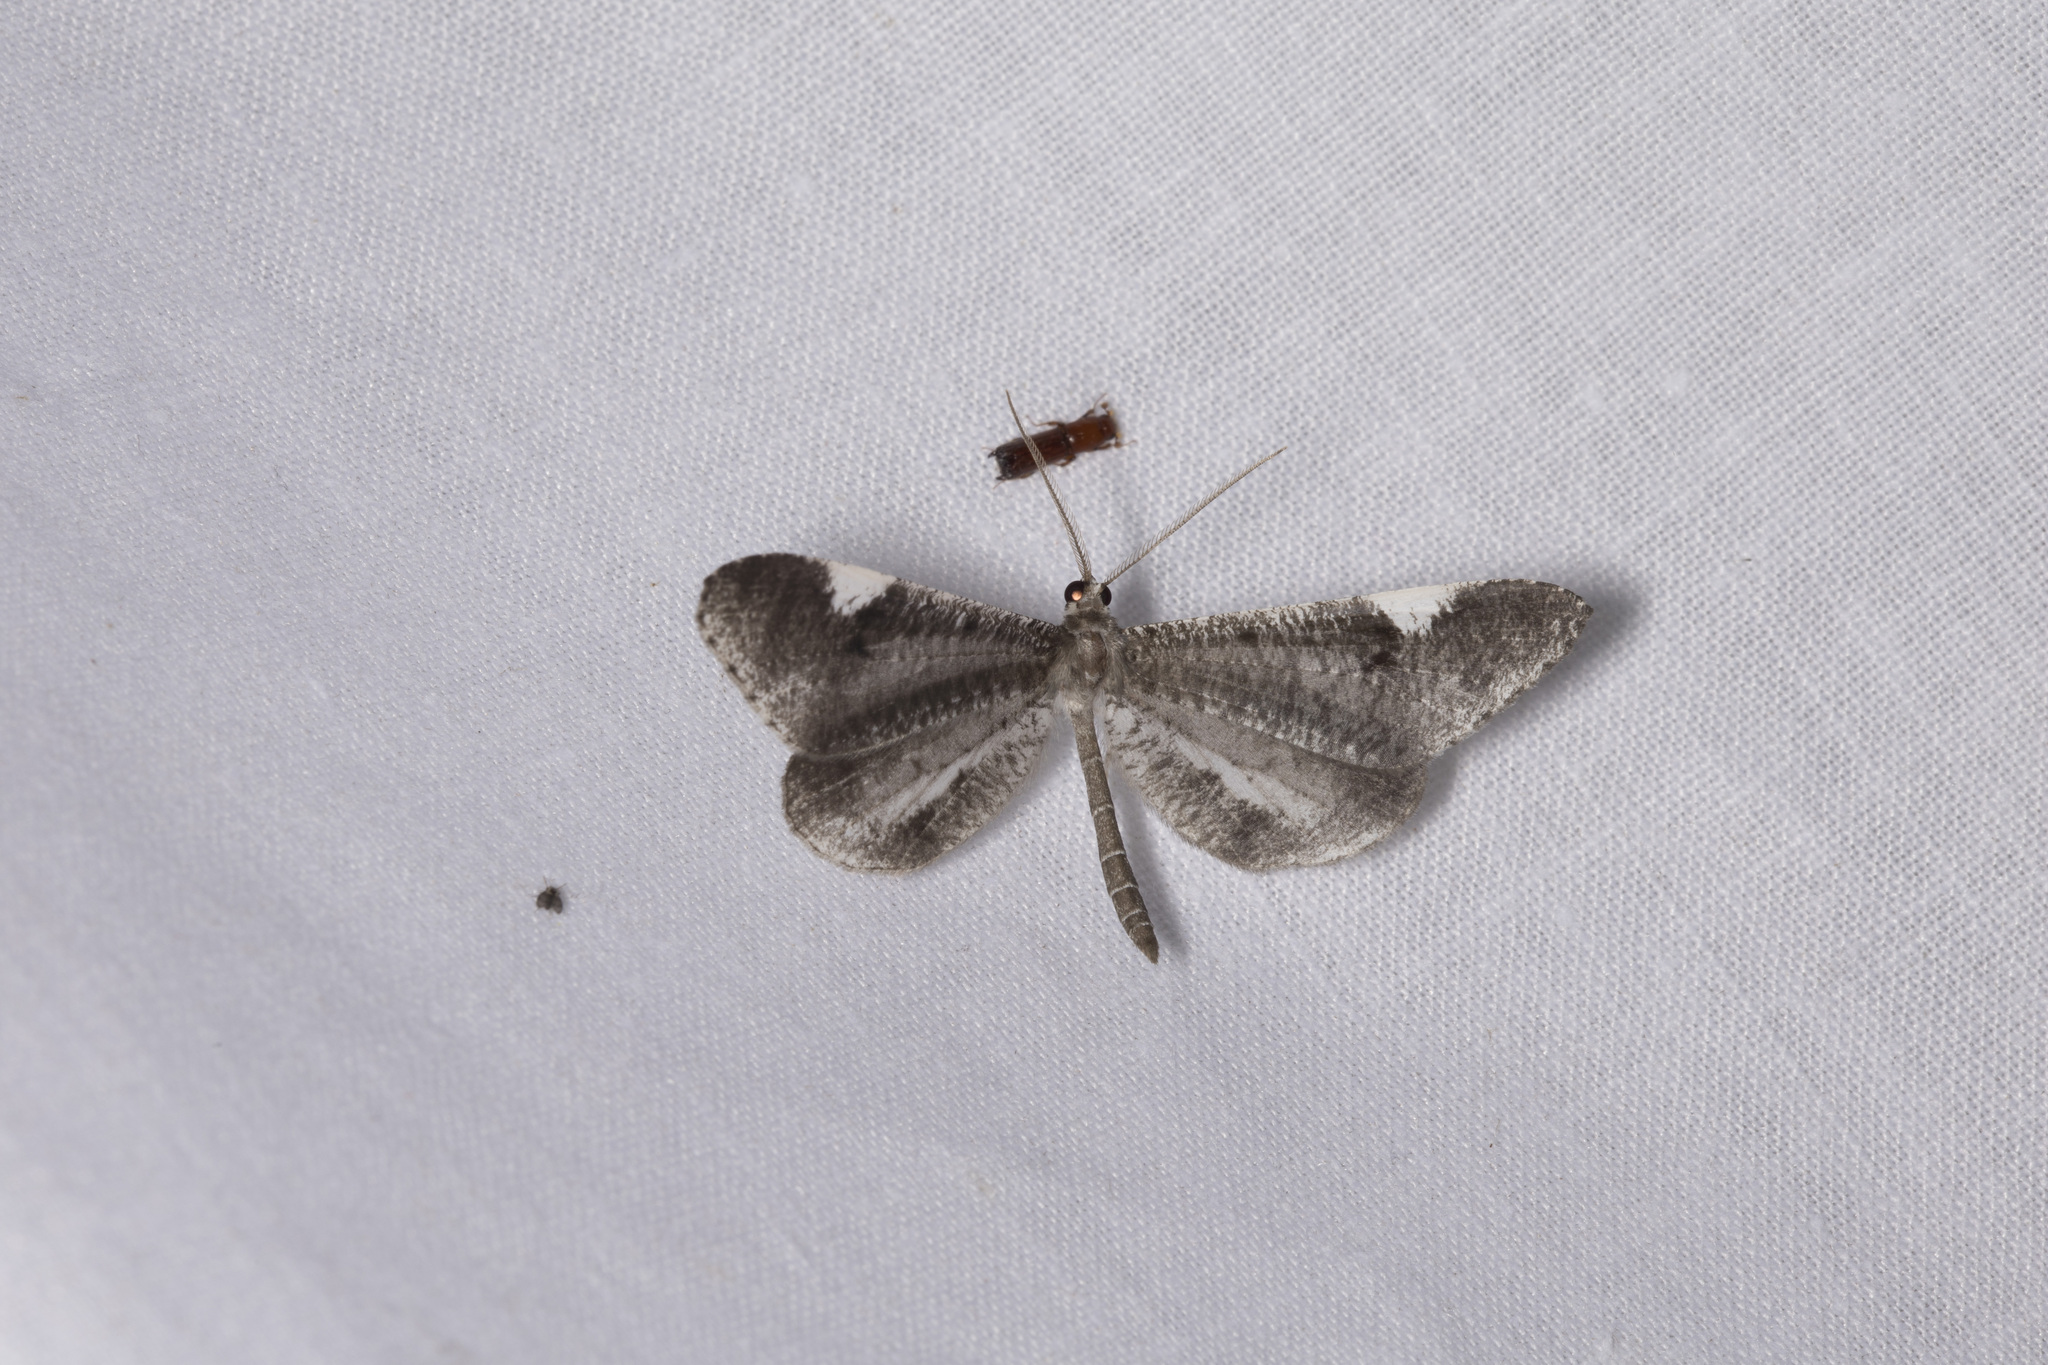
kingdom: Animalia
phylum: Arthropoda
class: Insecta
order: Lepidoptera
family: Hedylidae
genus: Macrosoma
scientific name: Macrosoma heliconiaria
